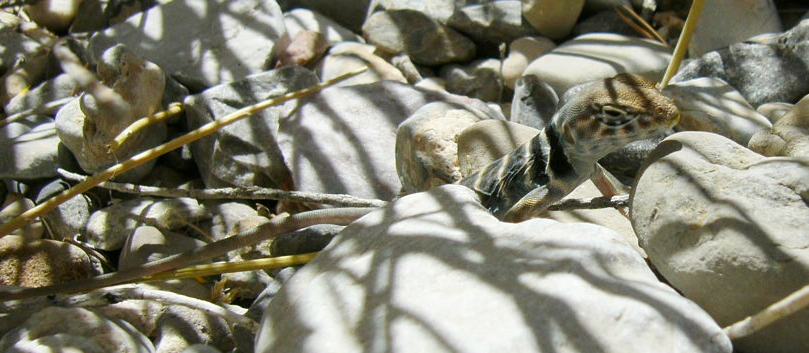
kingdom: Animalia
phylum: Chordata
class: Squamata
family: Crotaphytidae
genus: Crotaphytus
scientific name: Crotaphytus bicinctores
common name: Mojave black-collared lizard
